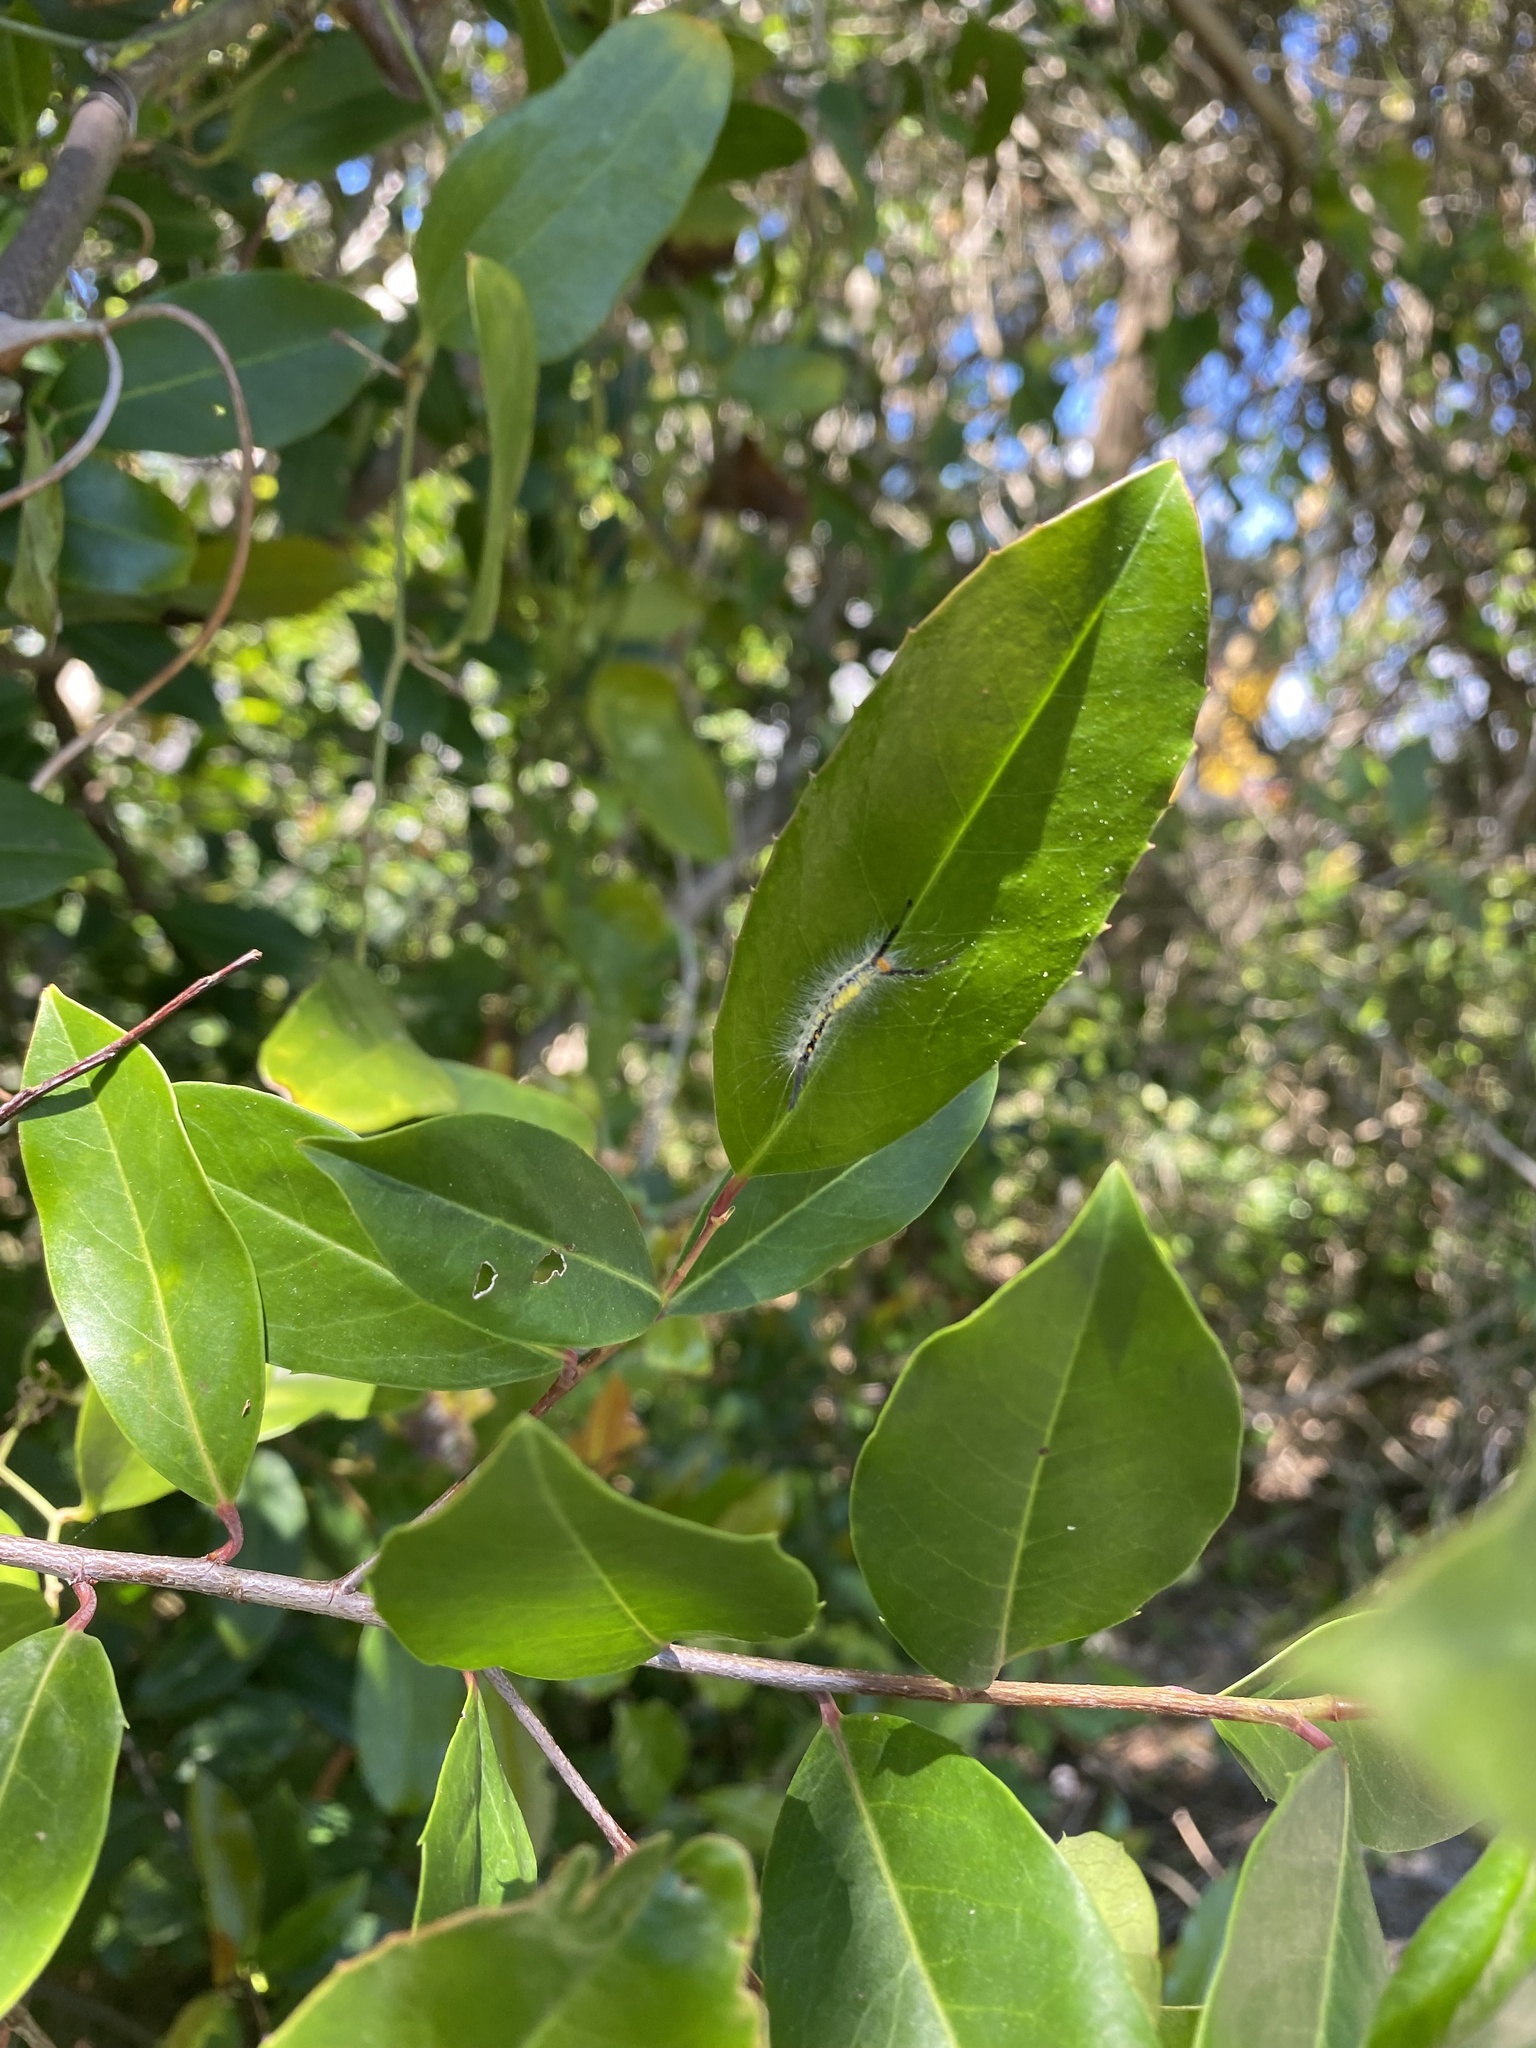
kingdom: Animalia
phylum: Arthropoda
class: Insecta
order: Lepidoptera
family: Erebidae
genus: Orgyia
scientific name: Orgyia detrita
